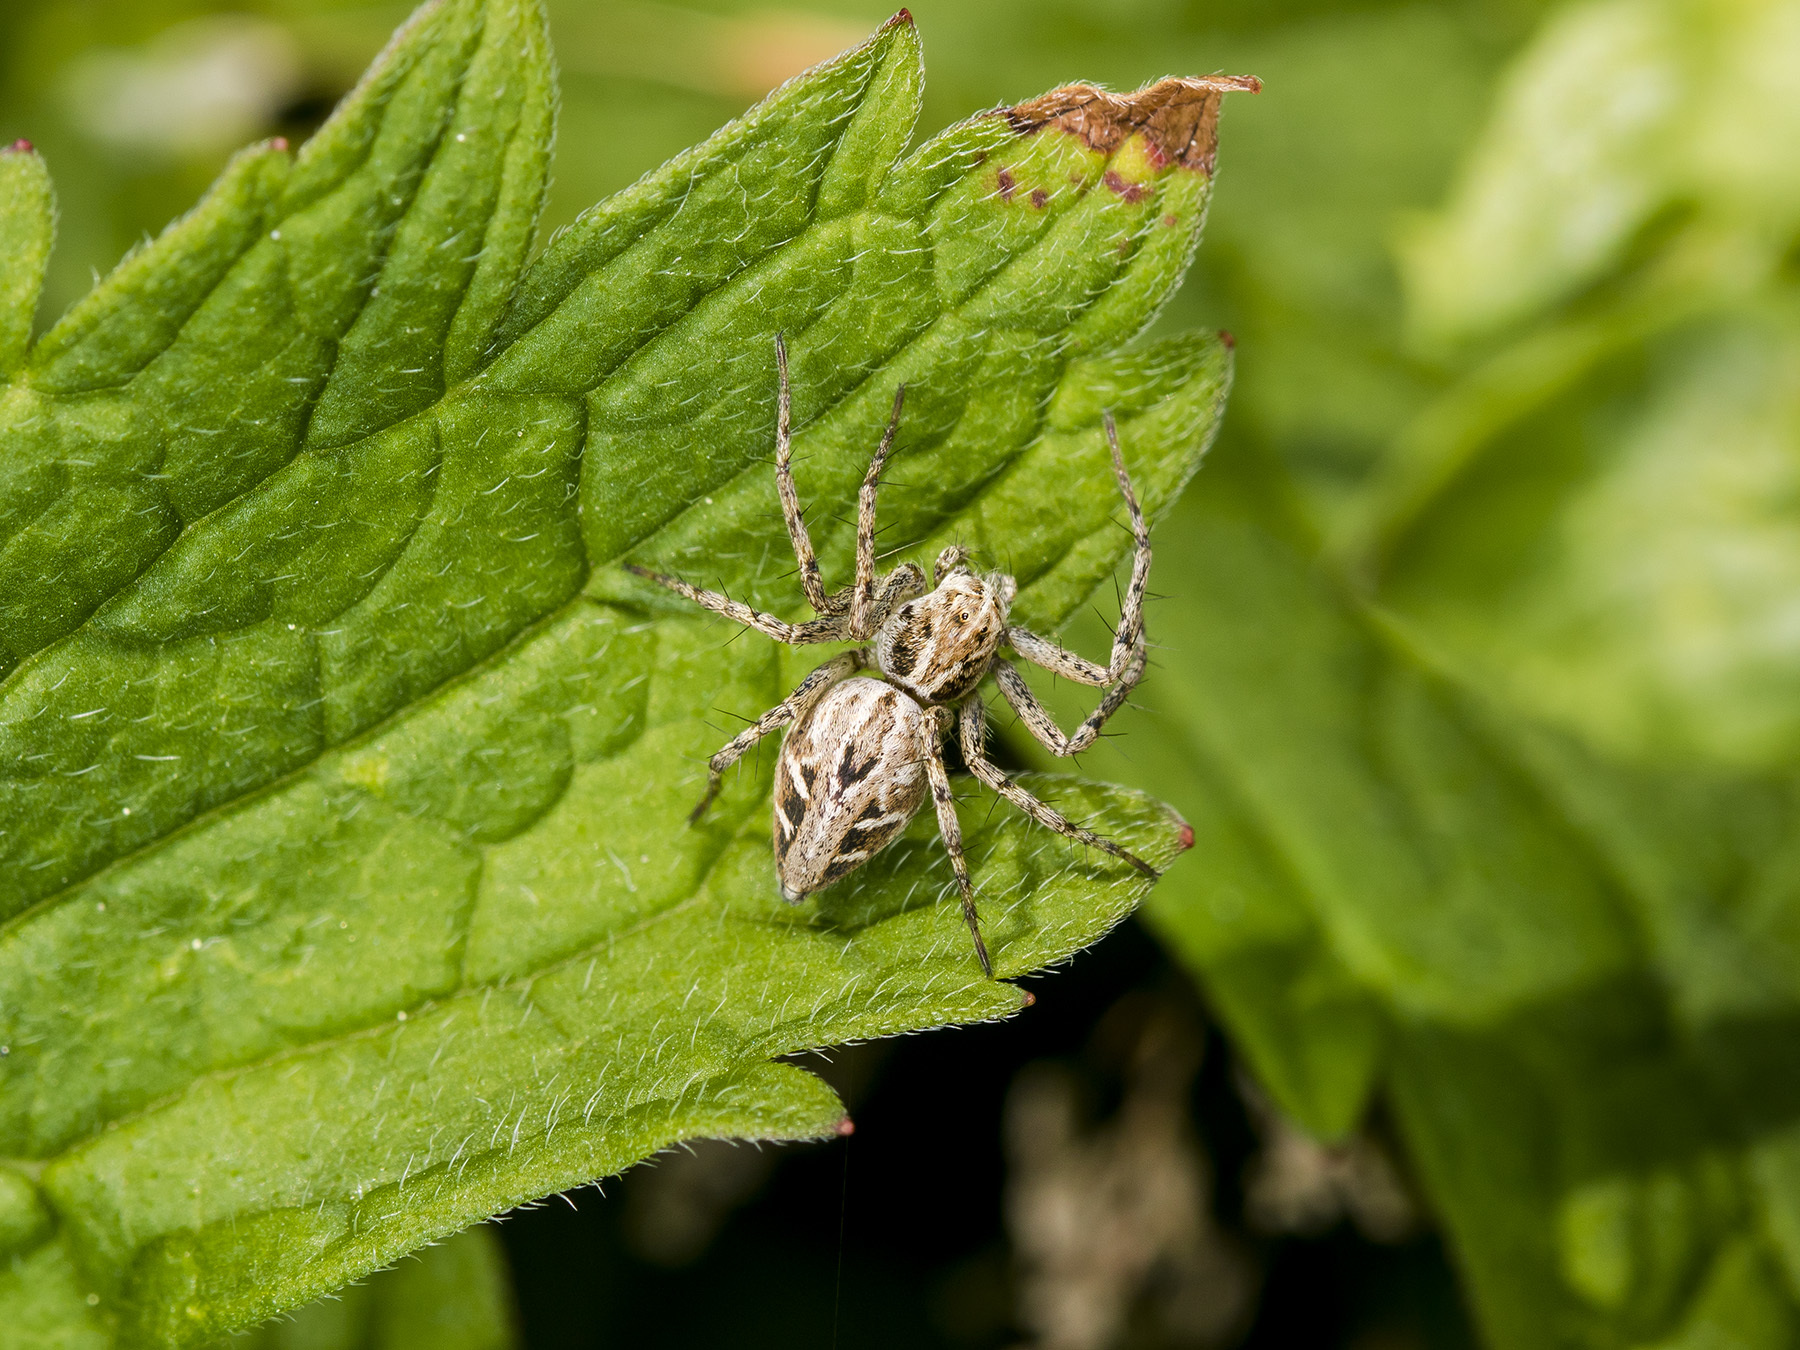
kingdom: Animalia
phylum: Arthropoda
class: Arachnida
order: Araneae
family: Oxyopidae
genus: Oxyopes
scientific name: Oxyopes takobius
